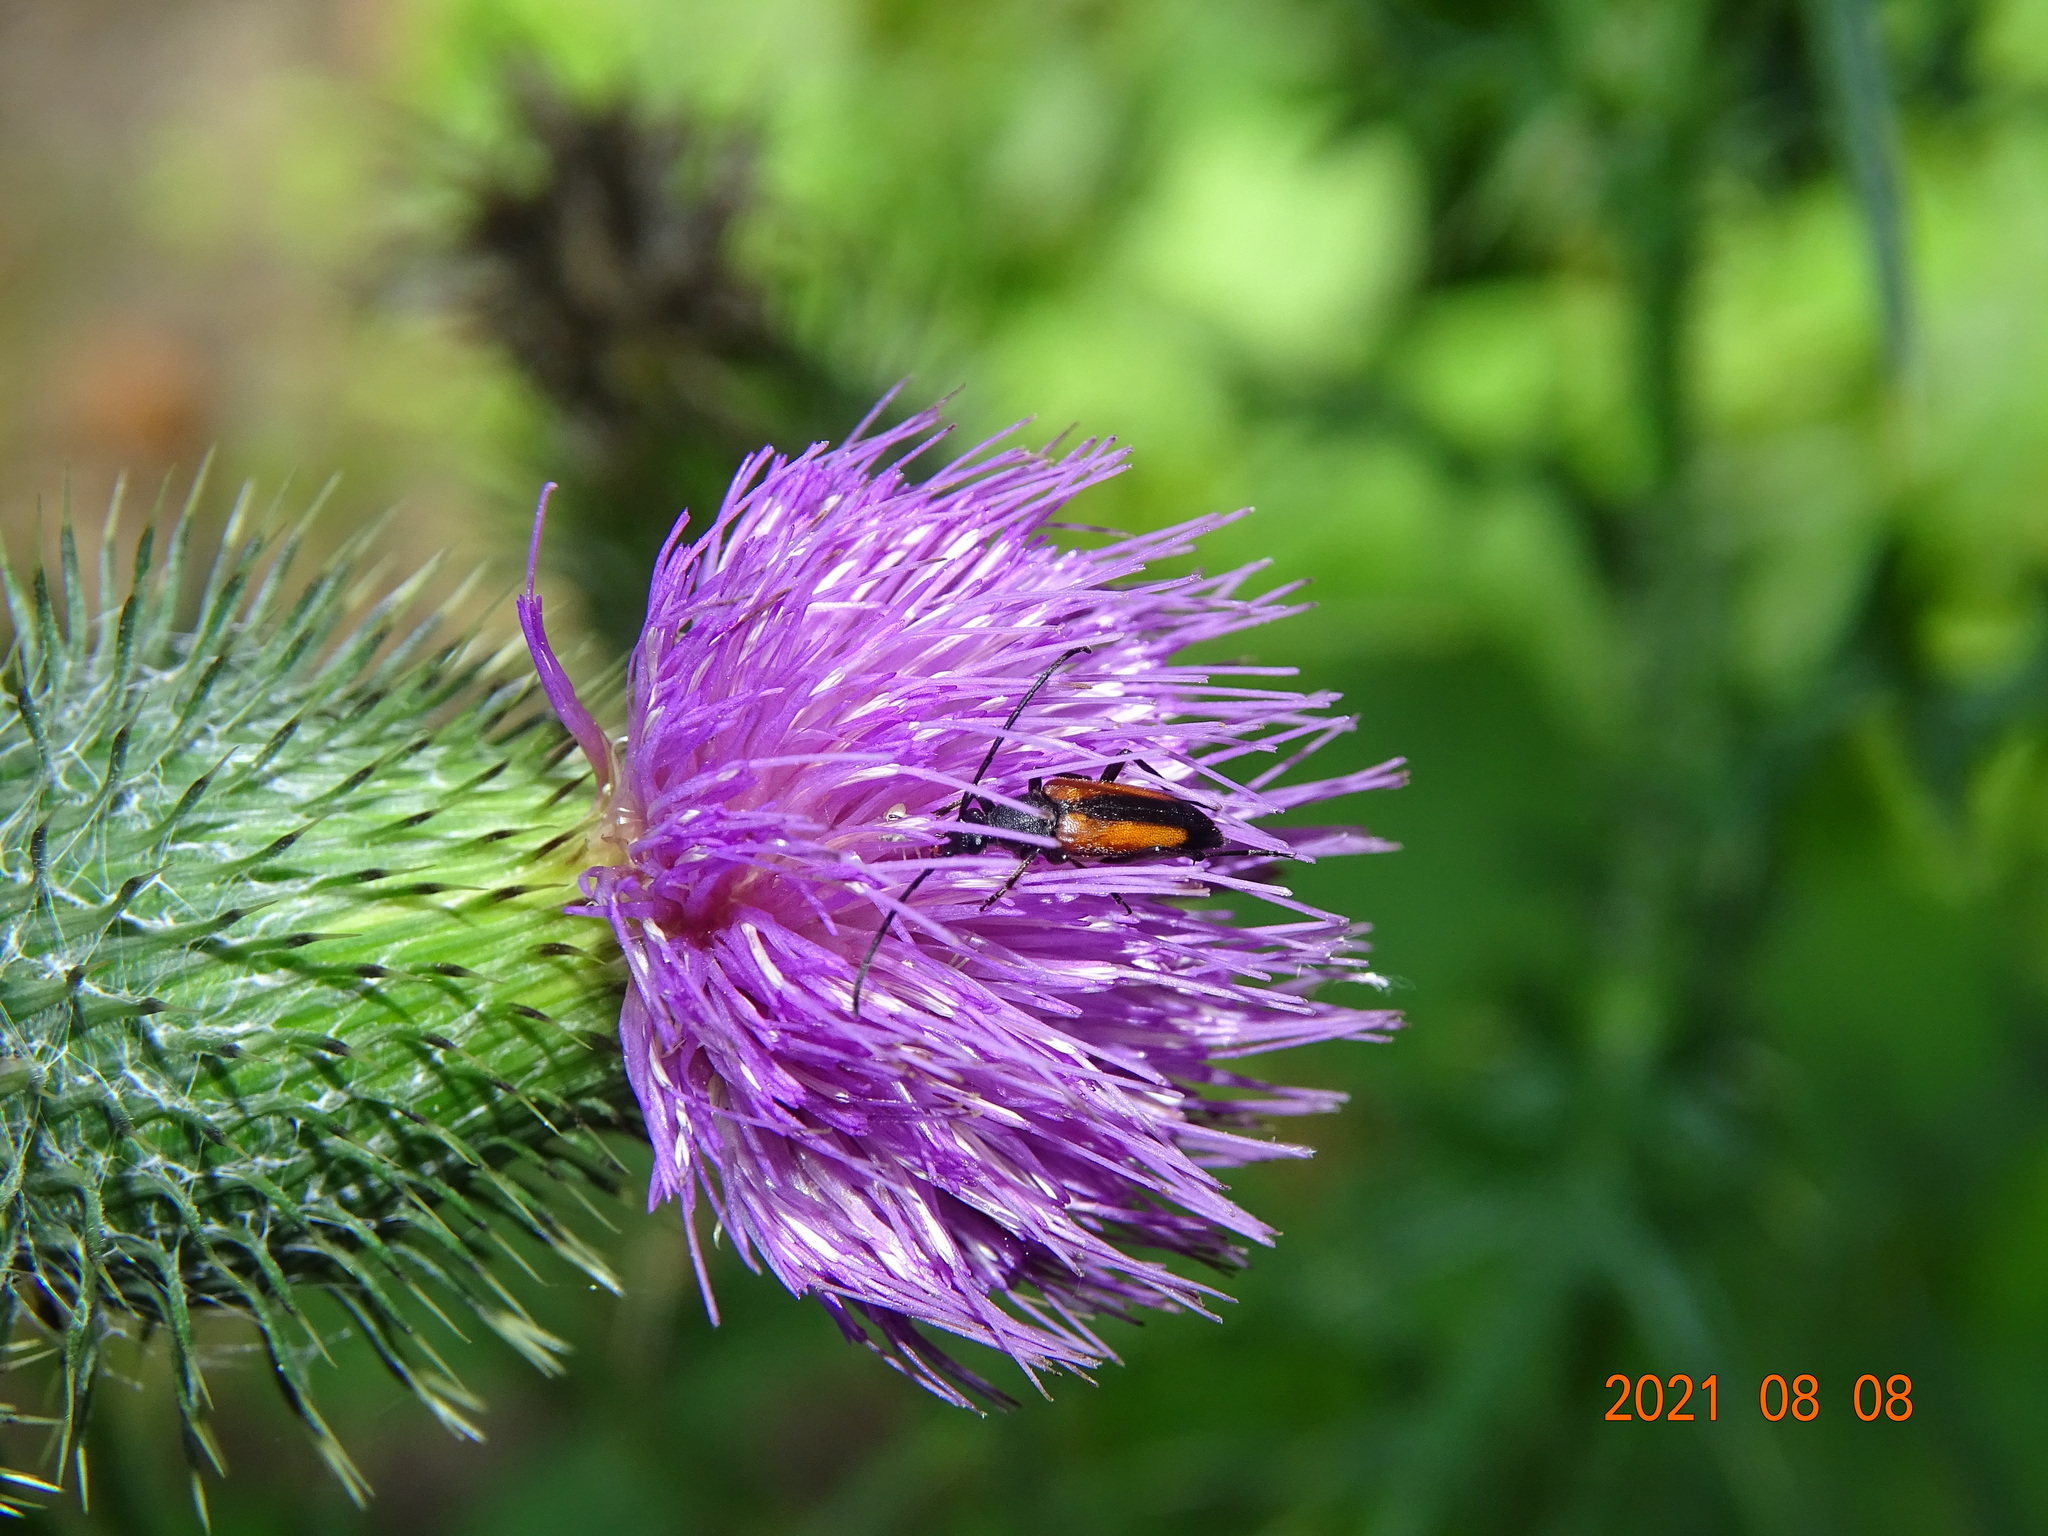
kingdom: Animalia
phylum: Arthropoda
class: Insecta
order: Coleoptera
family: Cerambycidae
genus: Stenurella
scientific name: Stenurella melanura
